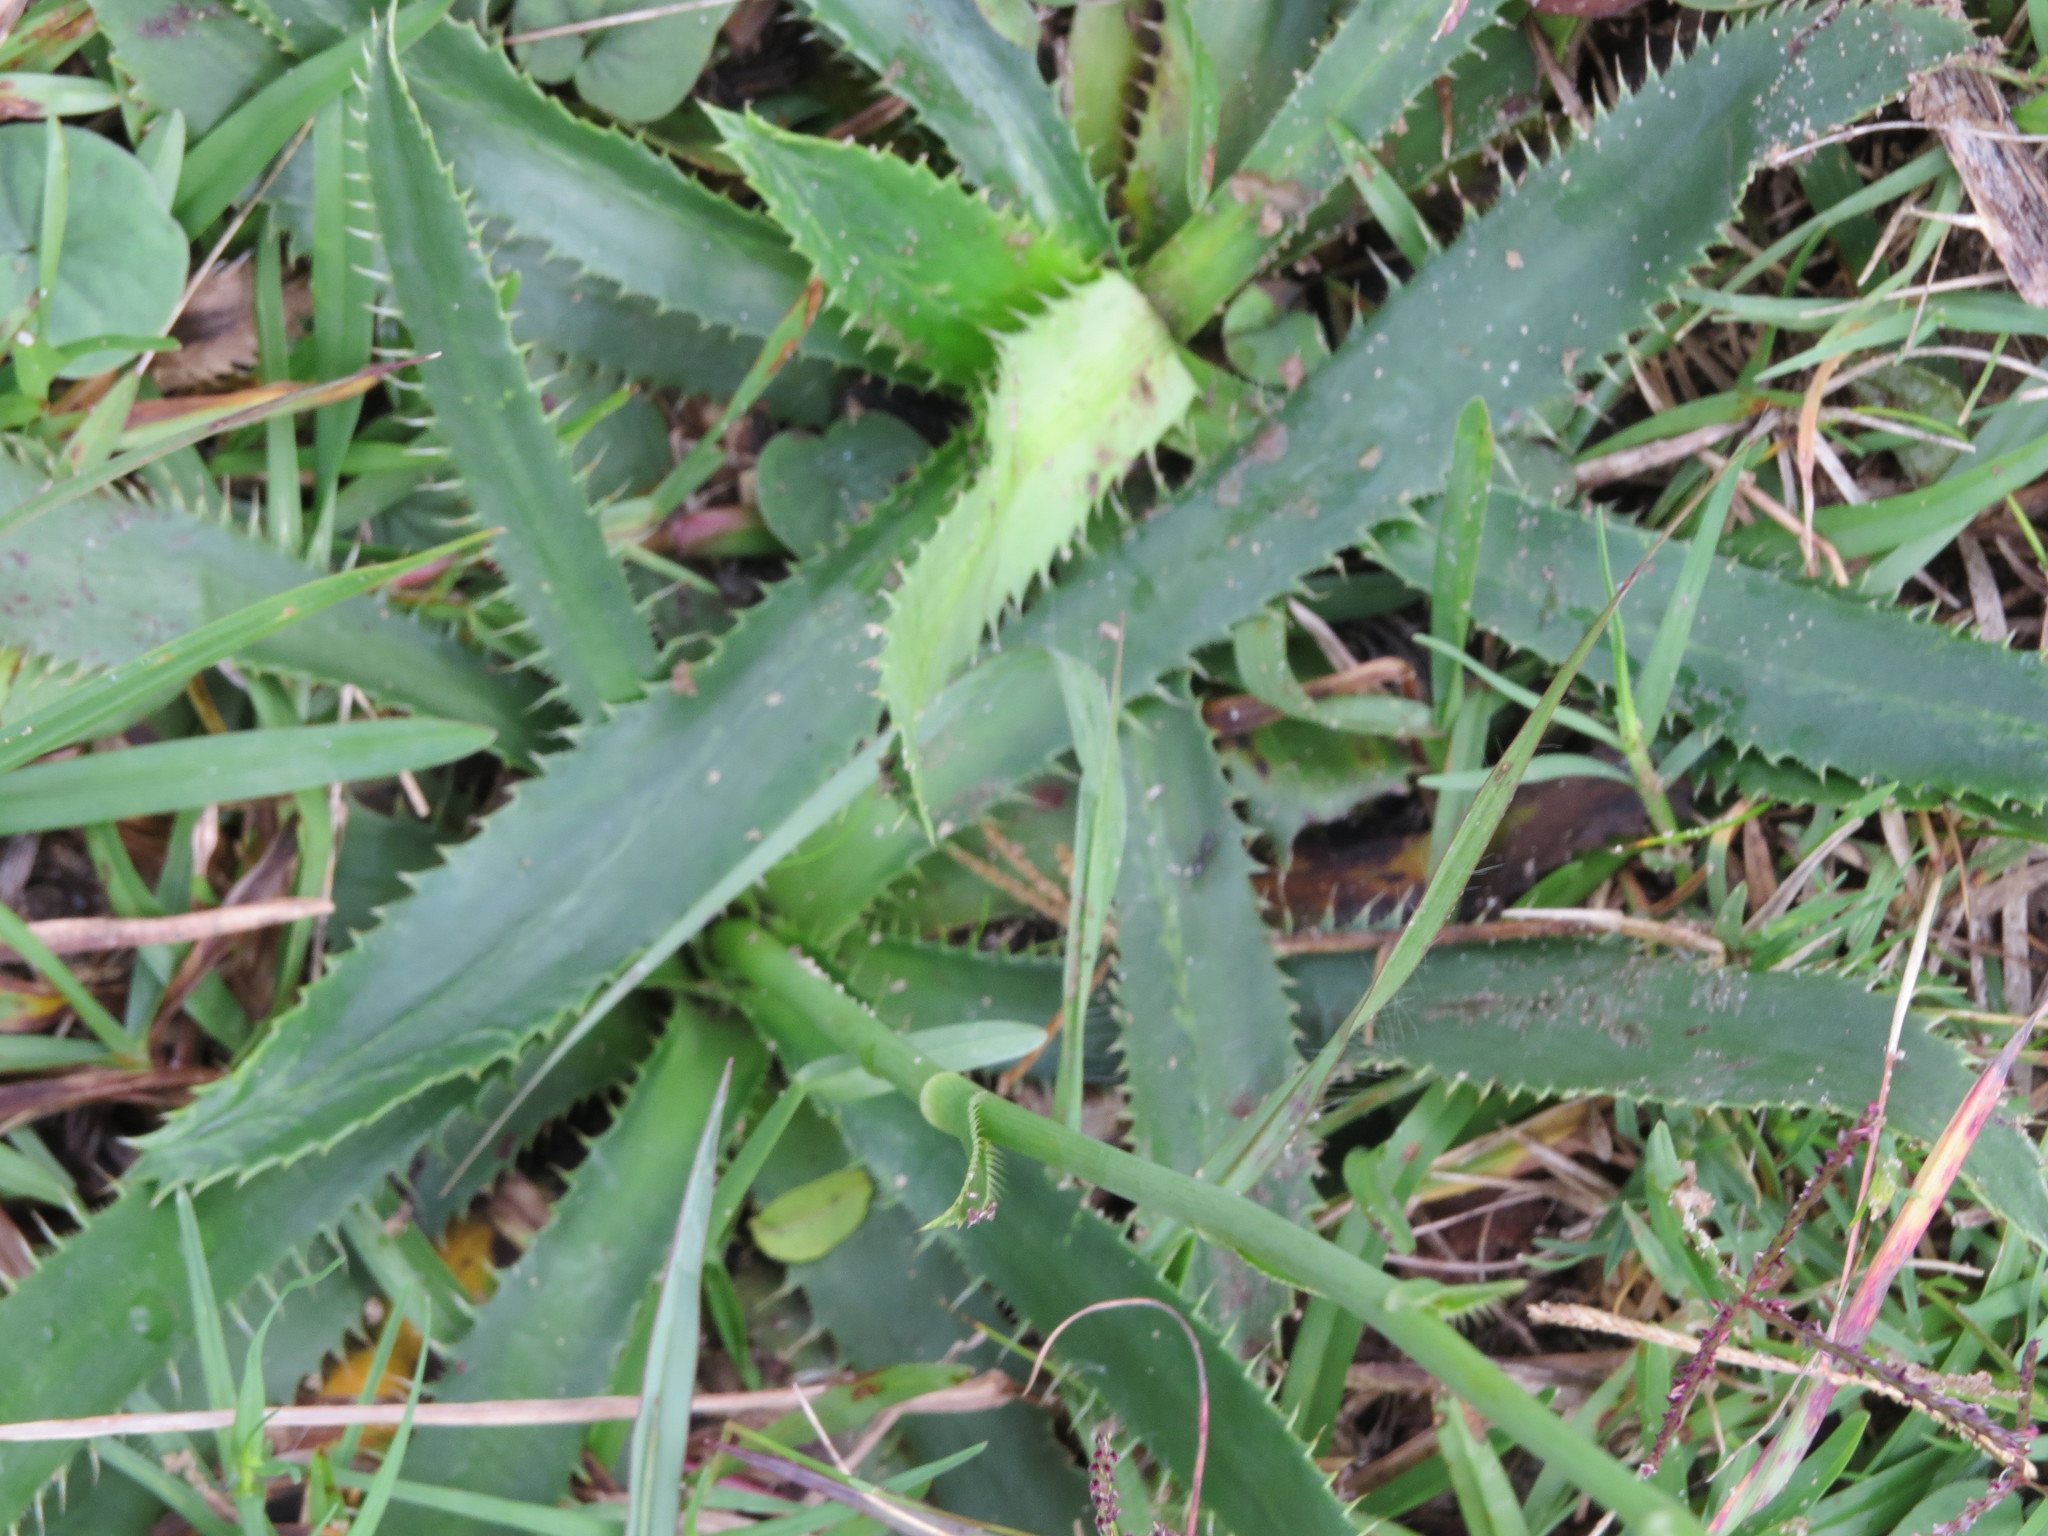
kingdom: Plantae
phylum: Tracheophyta
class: Magnoliopsida
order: Apiales
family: Apiaceae
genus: Eryngium
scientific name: Eryngium elegans
